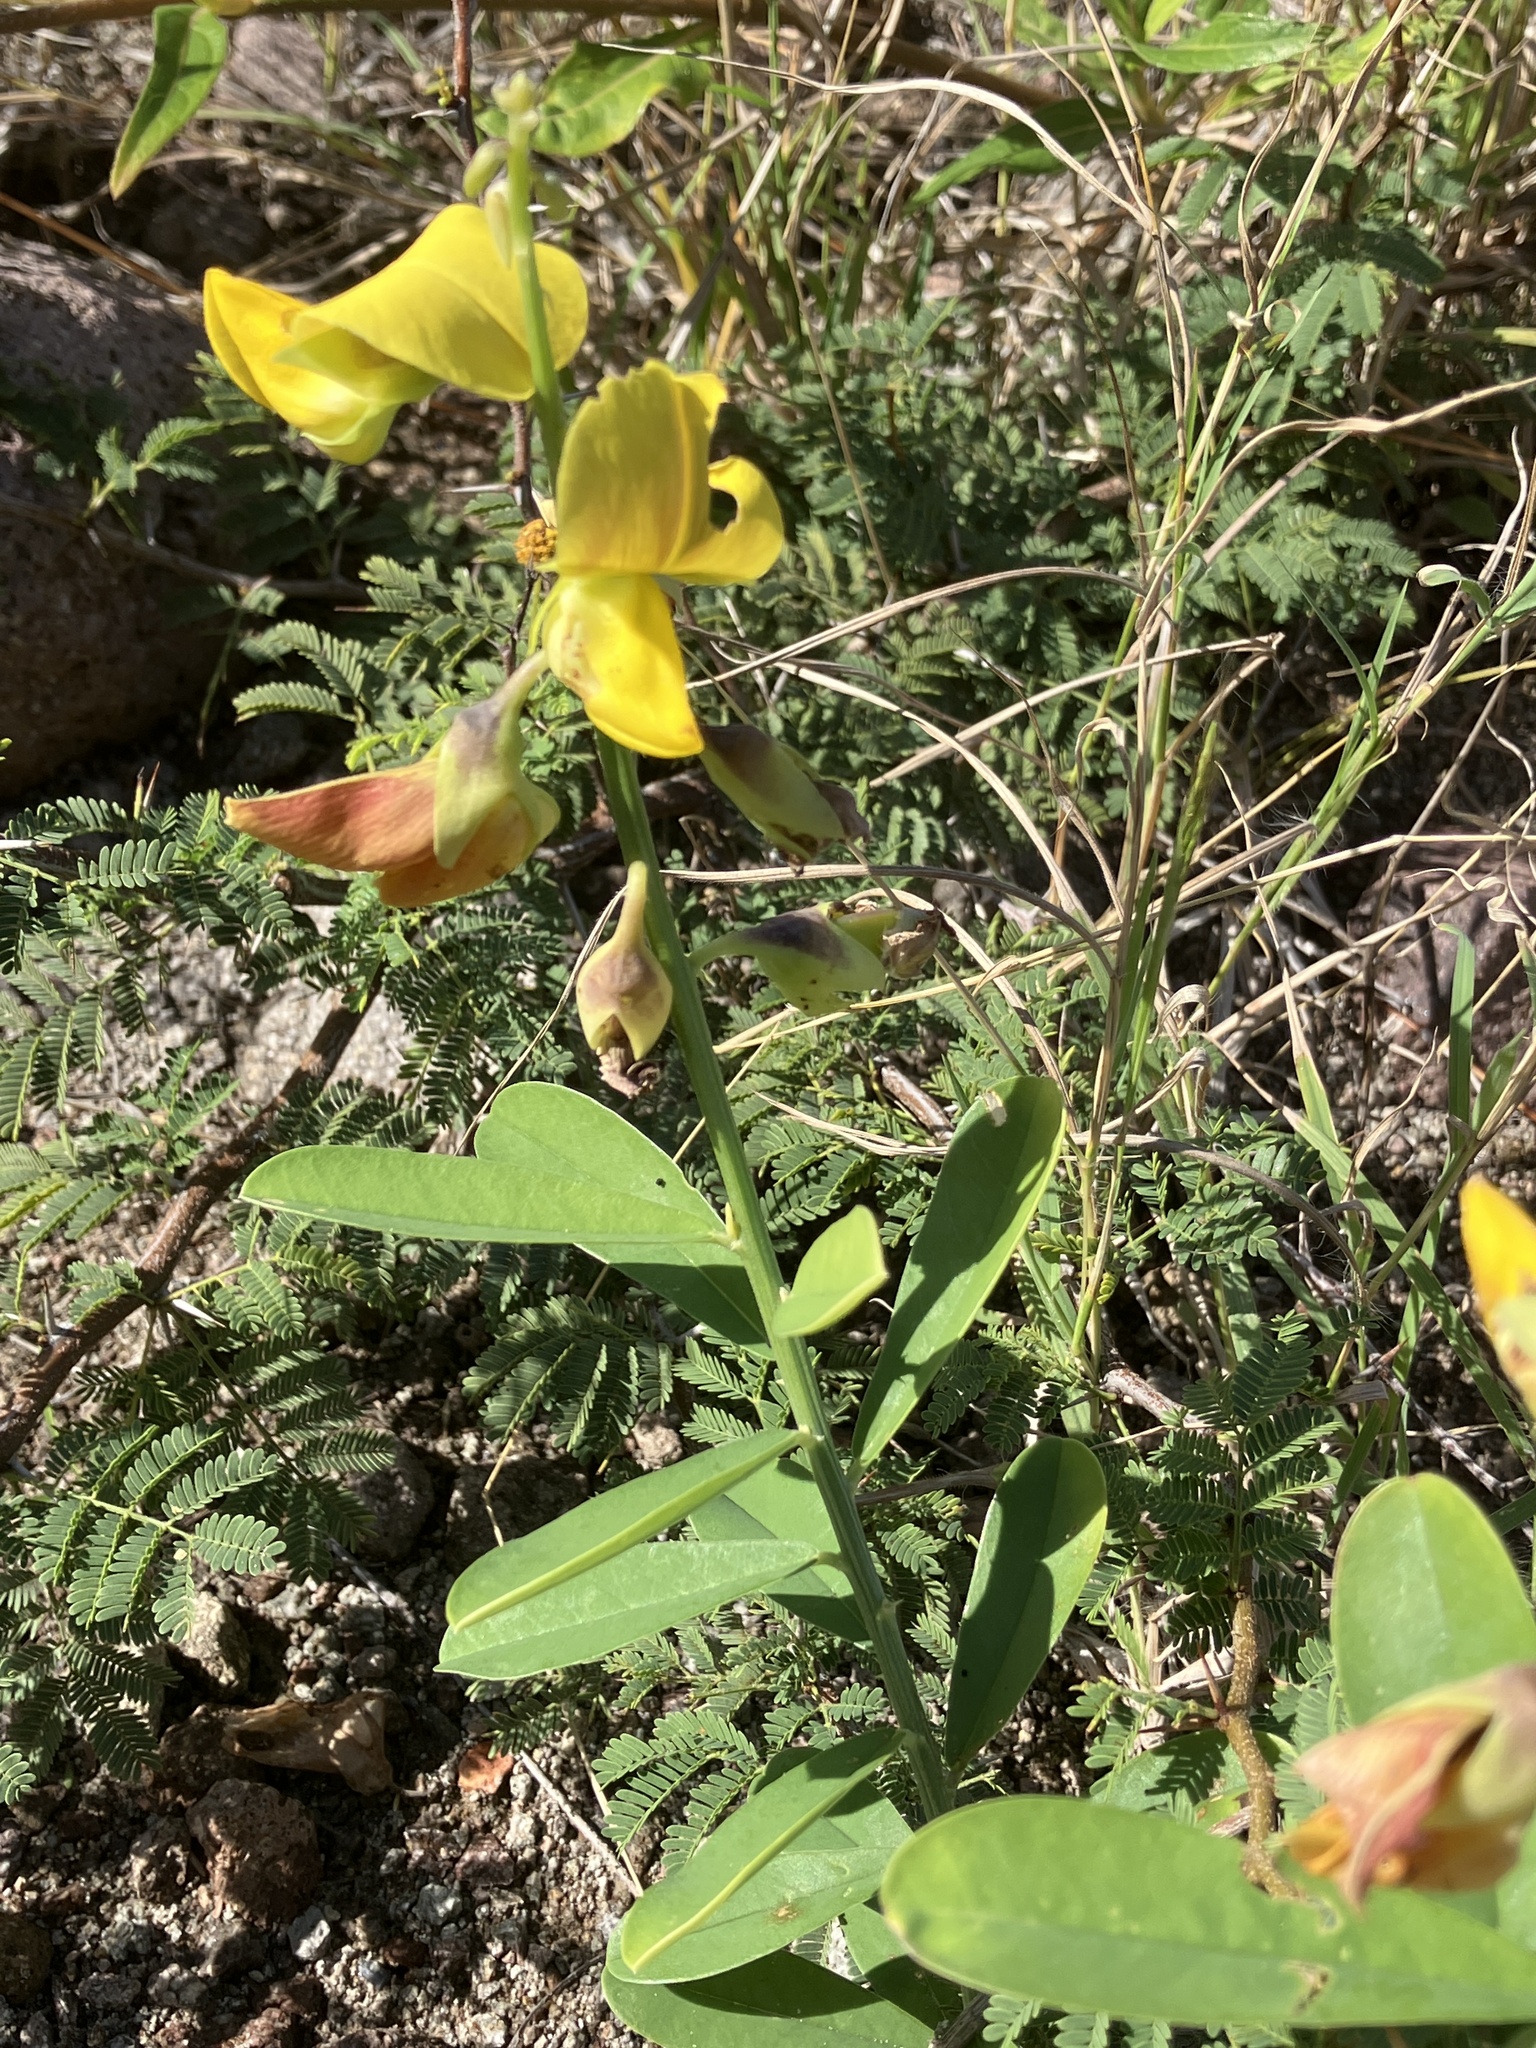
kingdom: Plantae
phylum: Tracheophyta
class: Magnoliopsida
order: Fabales
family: Fabaceae
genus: Crotalaria
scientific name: Crotalaria retusa
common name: Rattleweed
